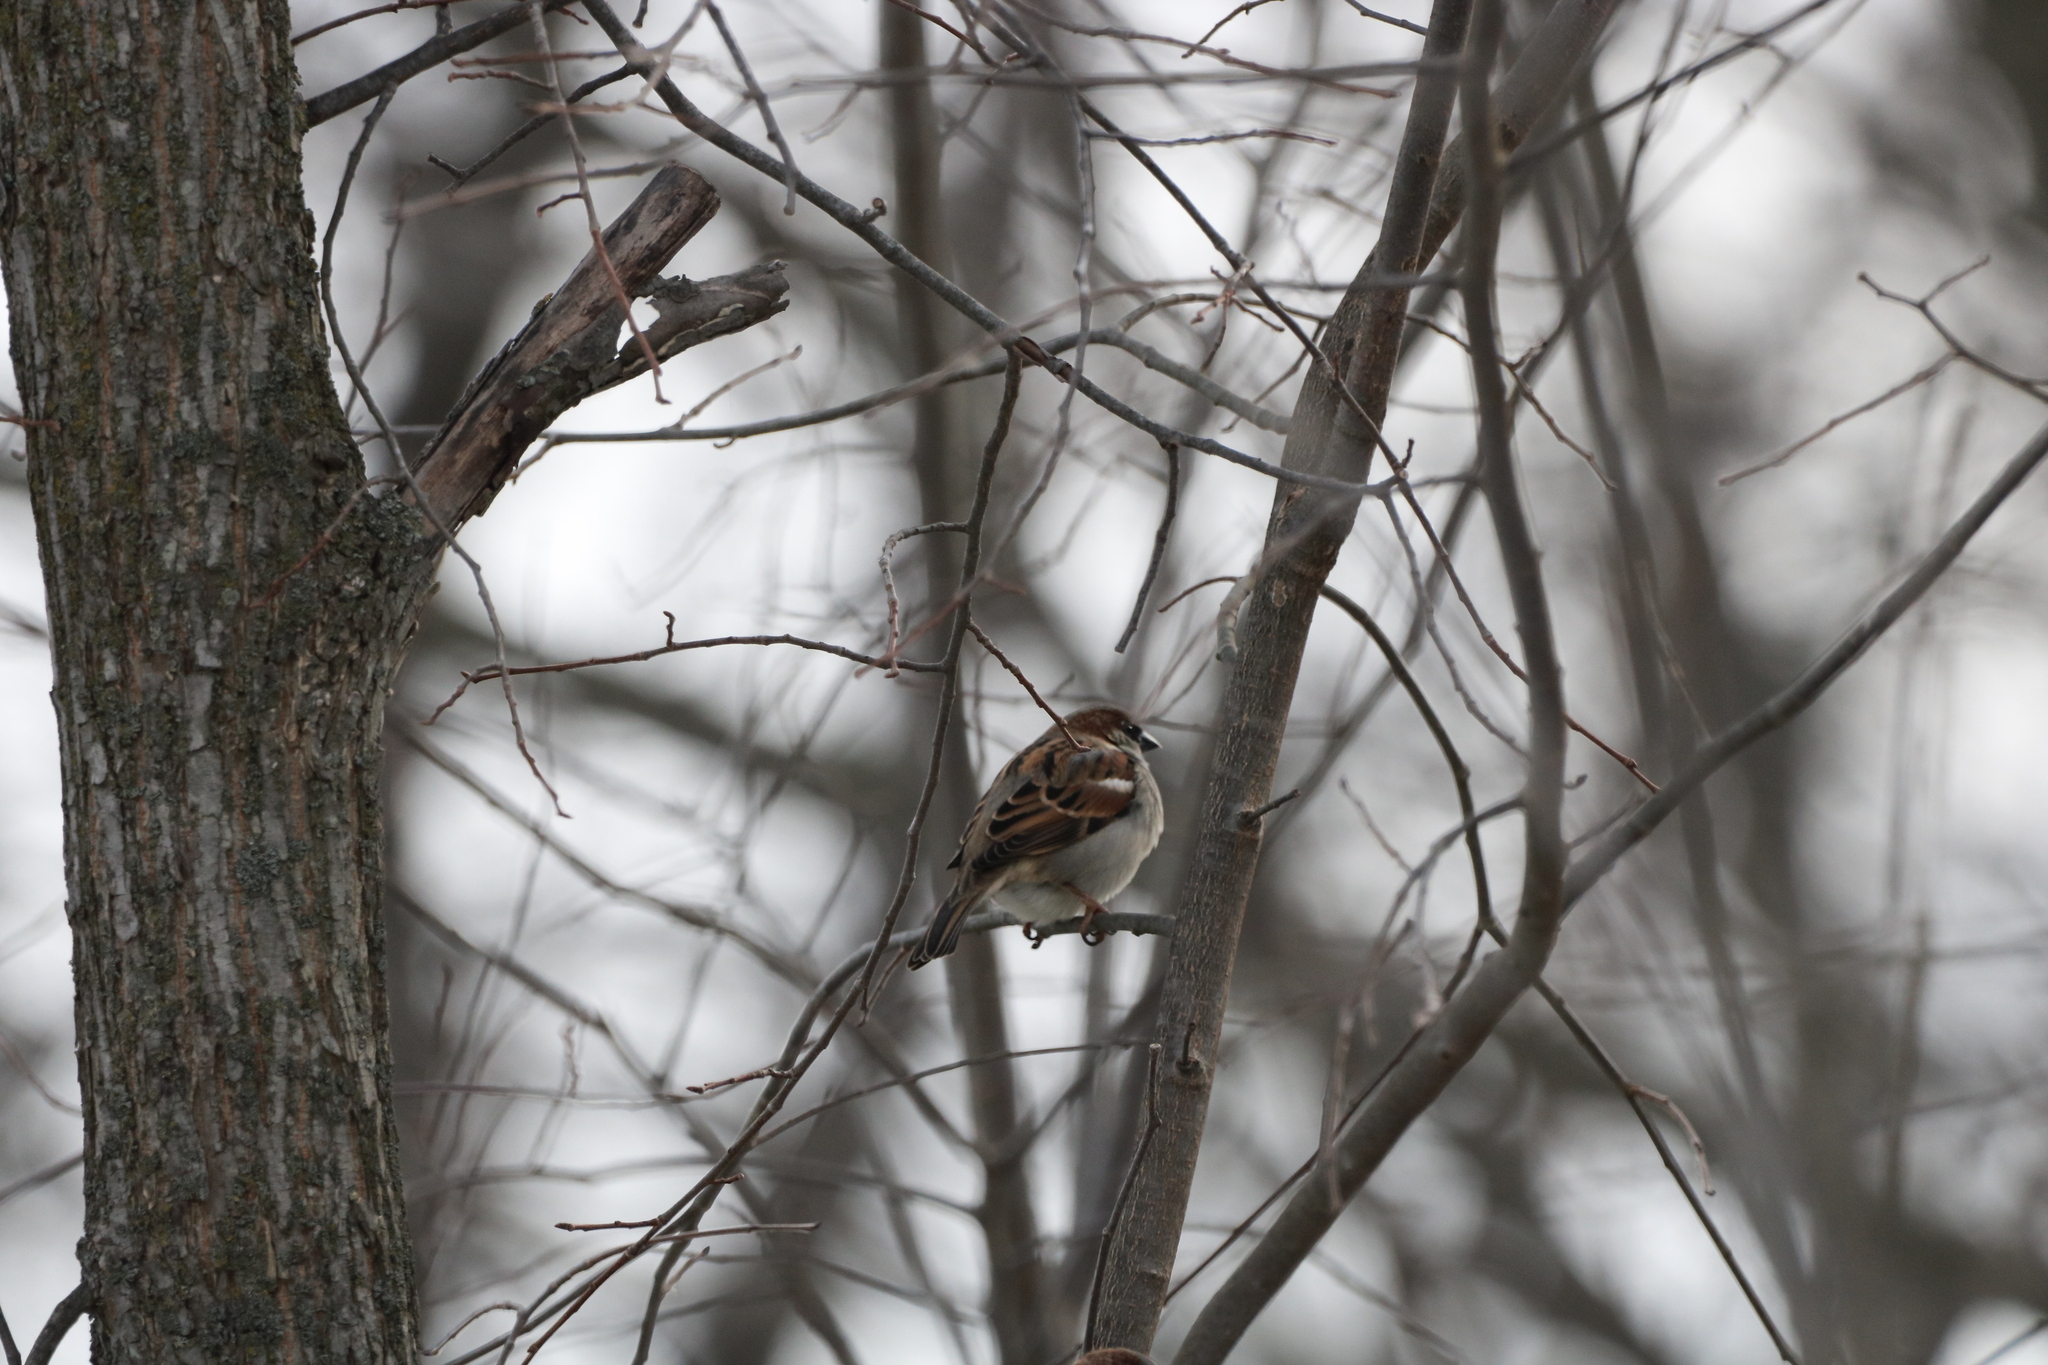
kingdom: Animalia
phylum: Chordata
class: Aves
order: Passeriformes
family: Passeridae
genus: Passer
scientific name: Passer domesticus
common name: House sparrow
